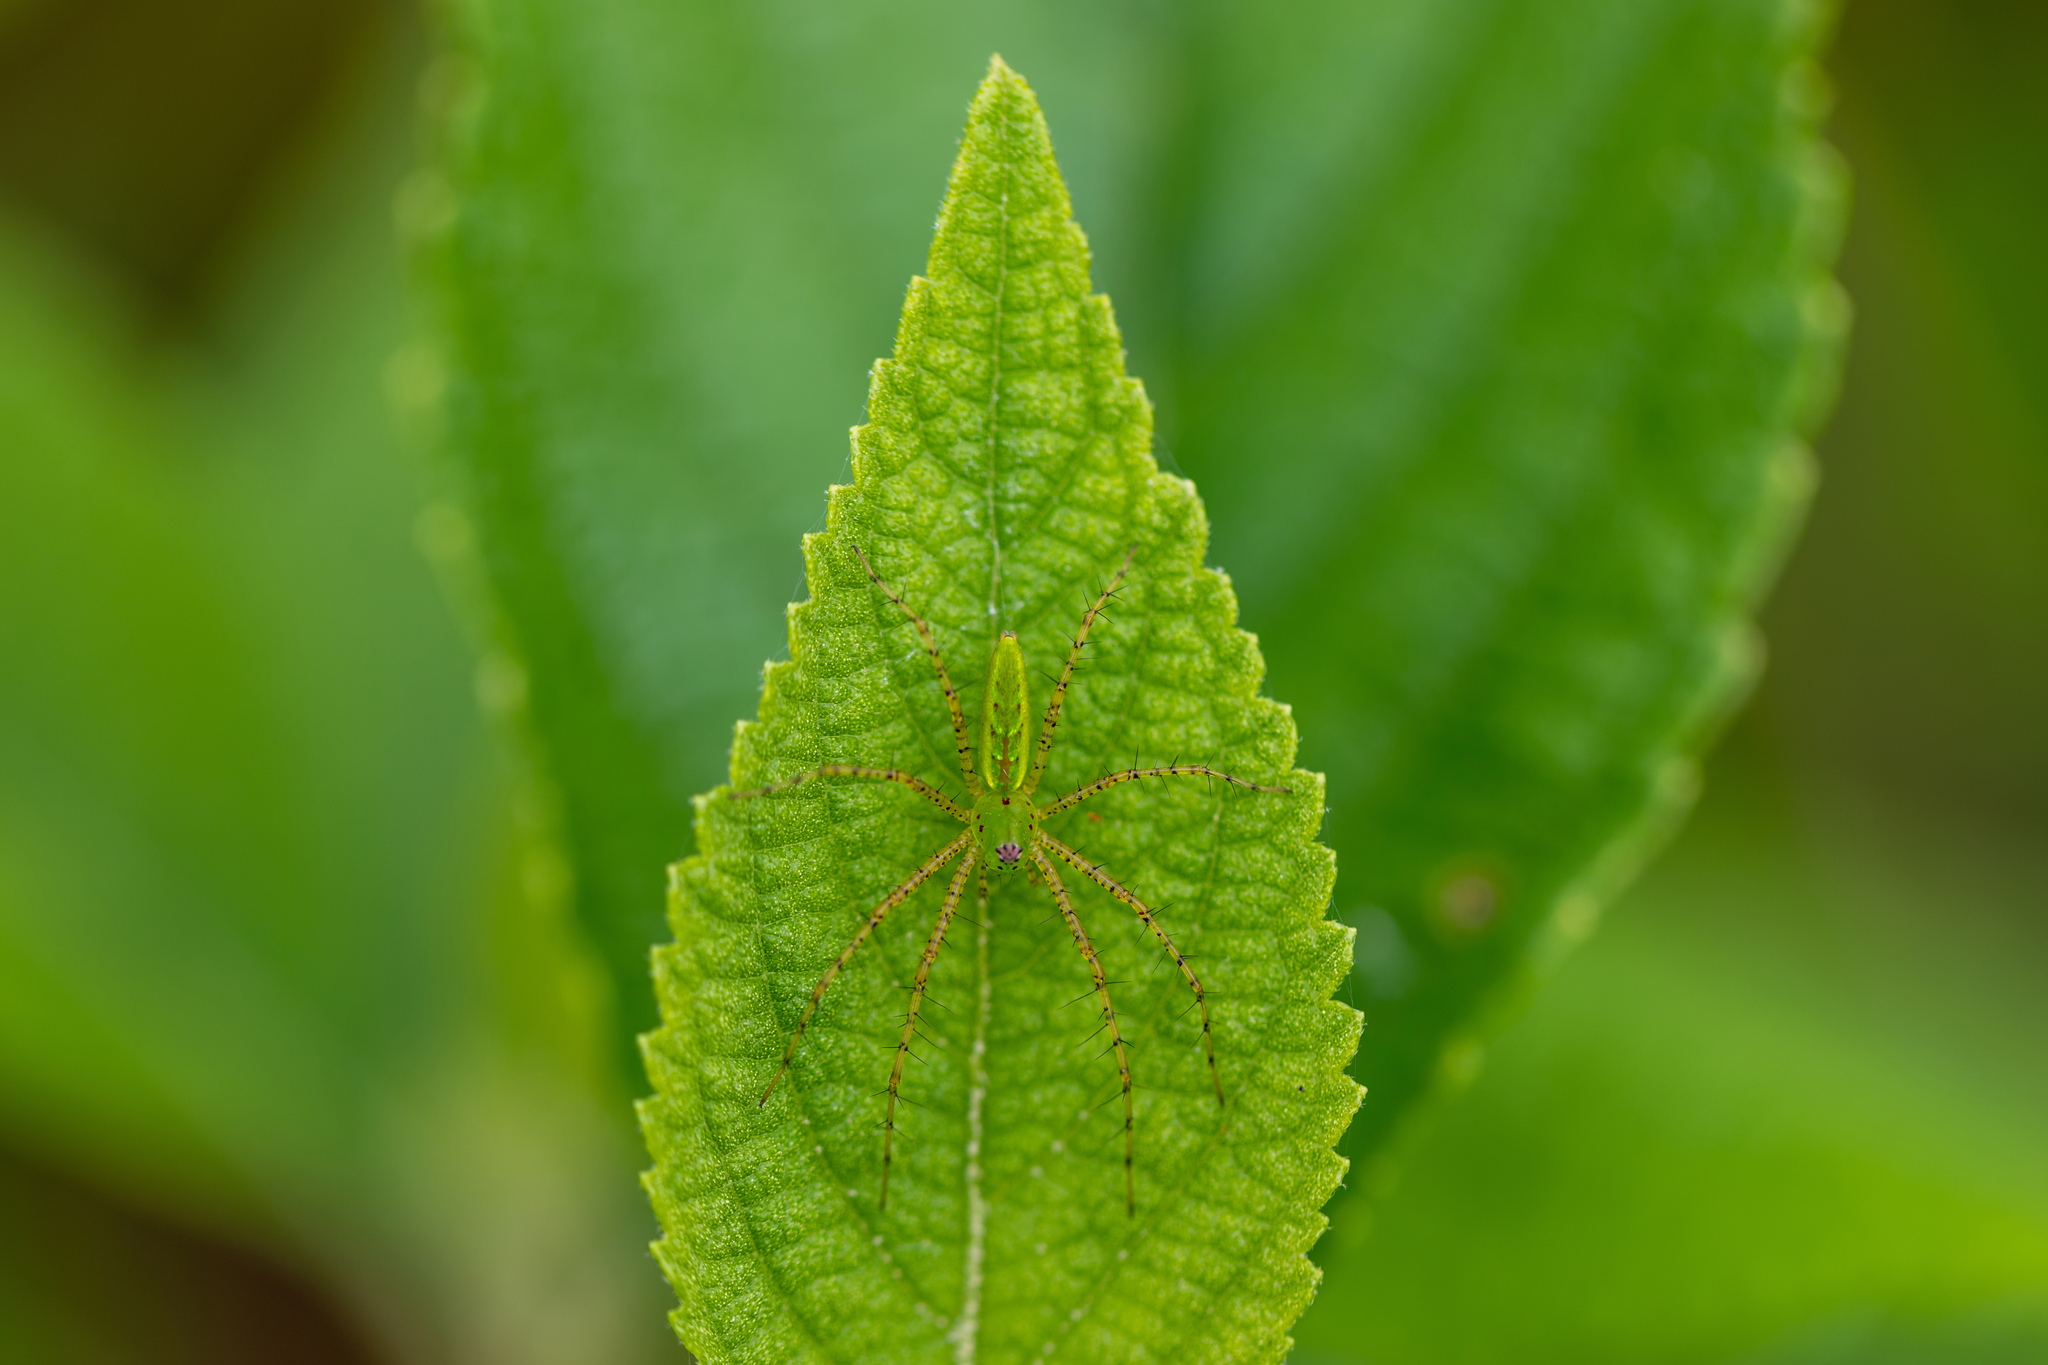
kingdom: Animalia
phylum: Arthropoda
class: Arachnida
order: Araneae
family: Oxyopidae
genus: Peucetia
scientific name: Peucetia viridans
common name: Lynx spiders
